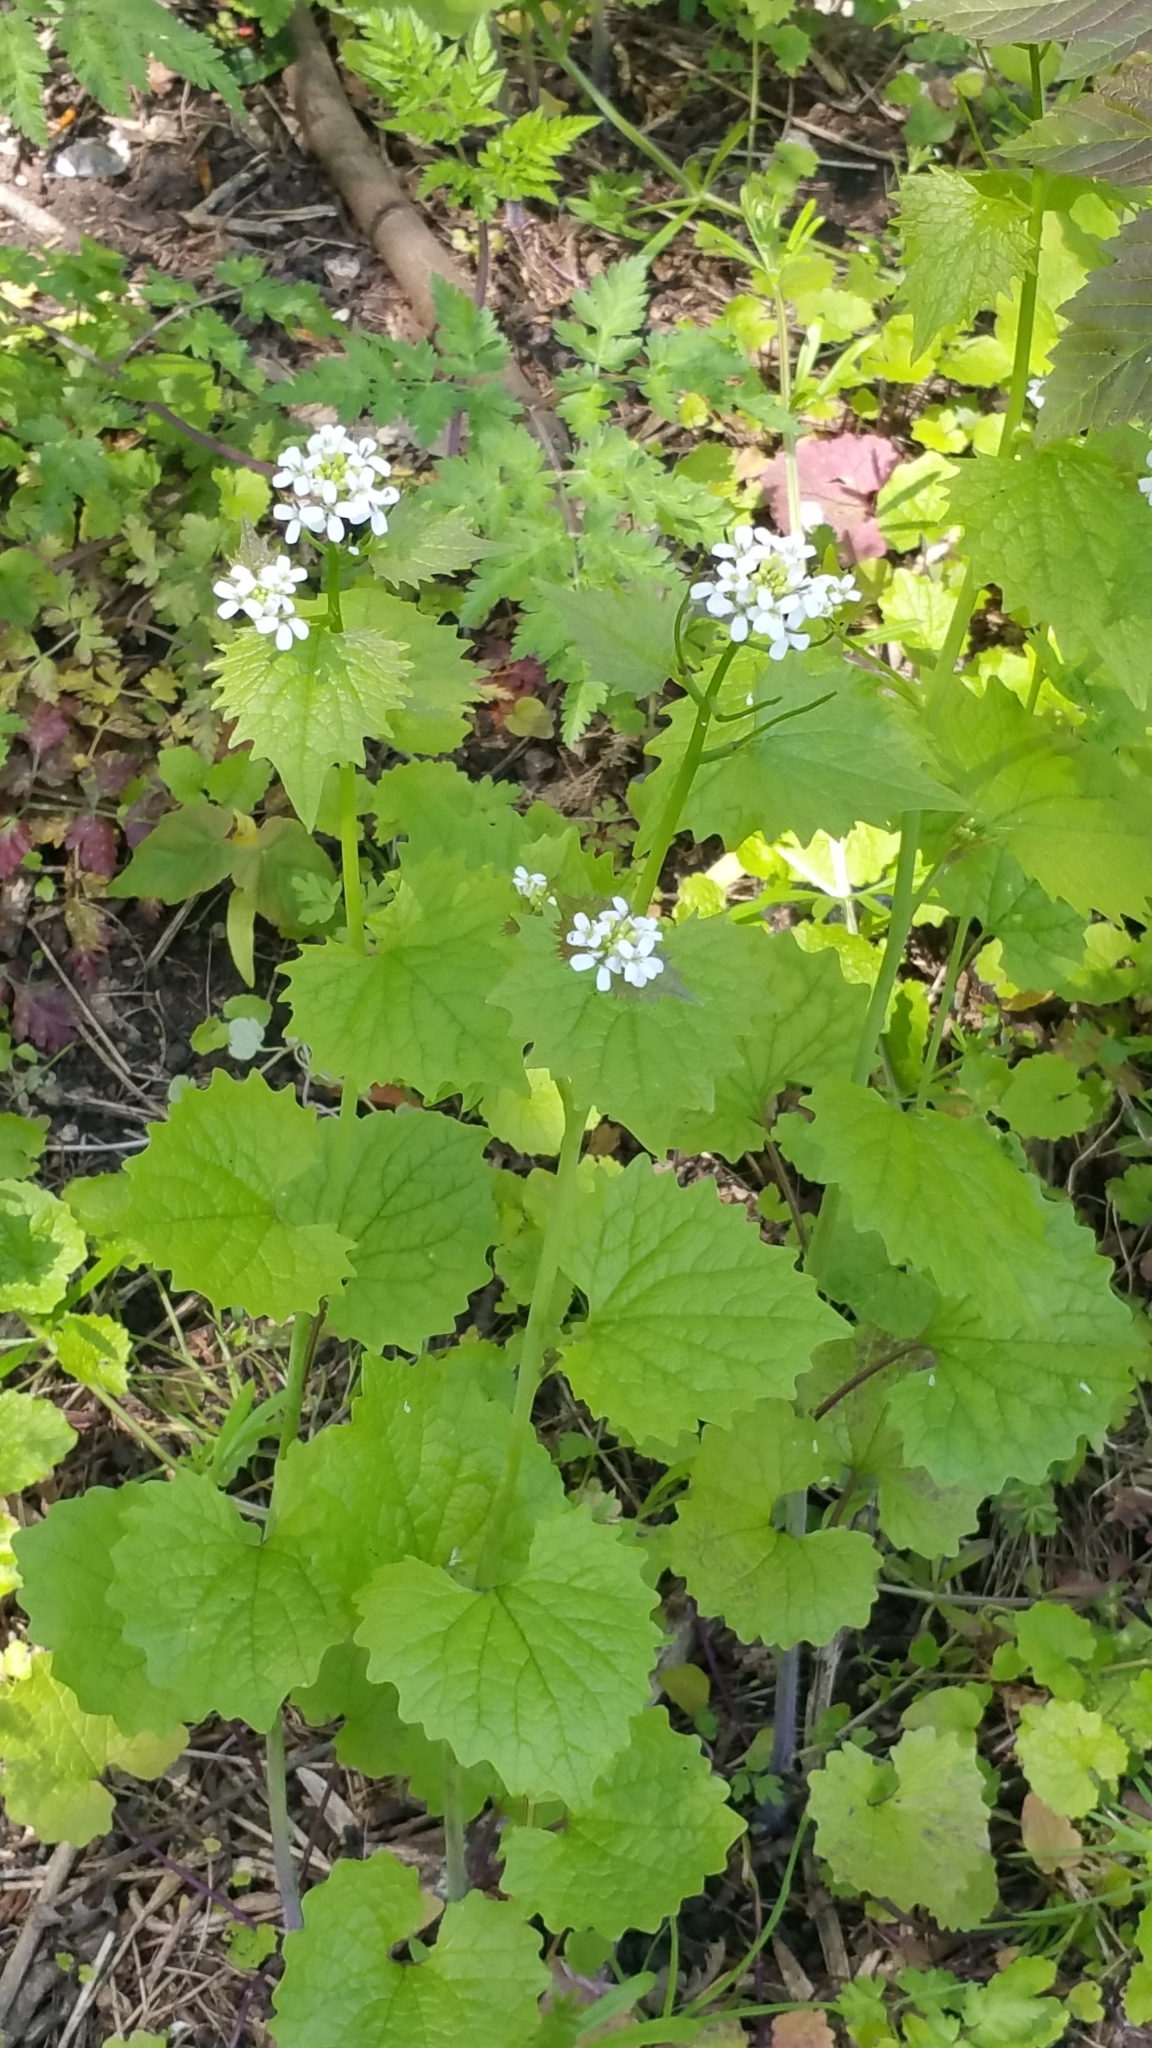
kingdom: Plantae
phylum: Tracheophyta
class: Magnoliopsida
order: Brassicales
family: Brassicaceae
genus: Alliaria
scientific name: Alliaria petiolata
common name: Garlic mustard
